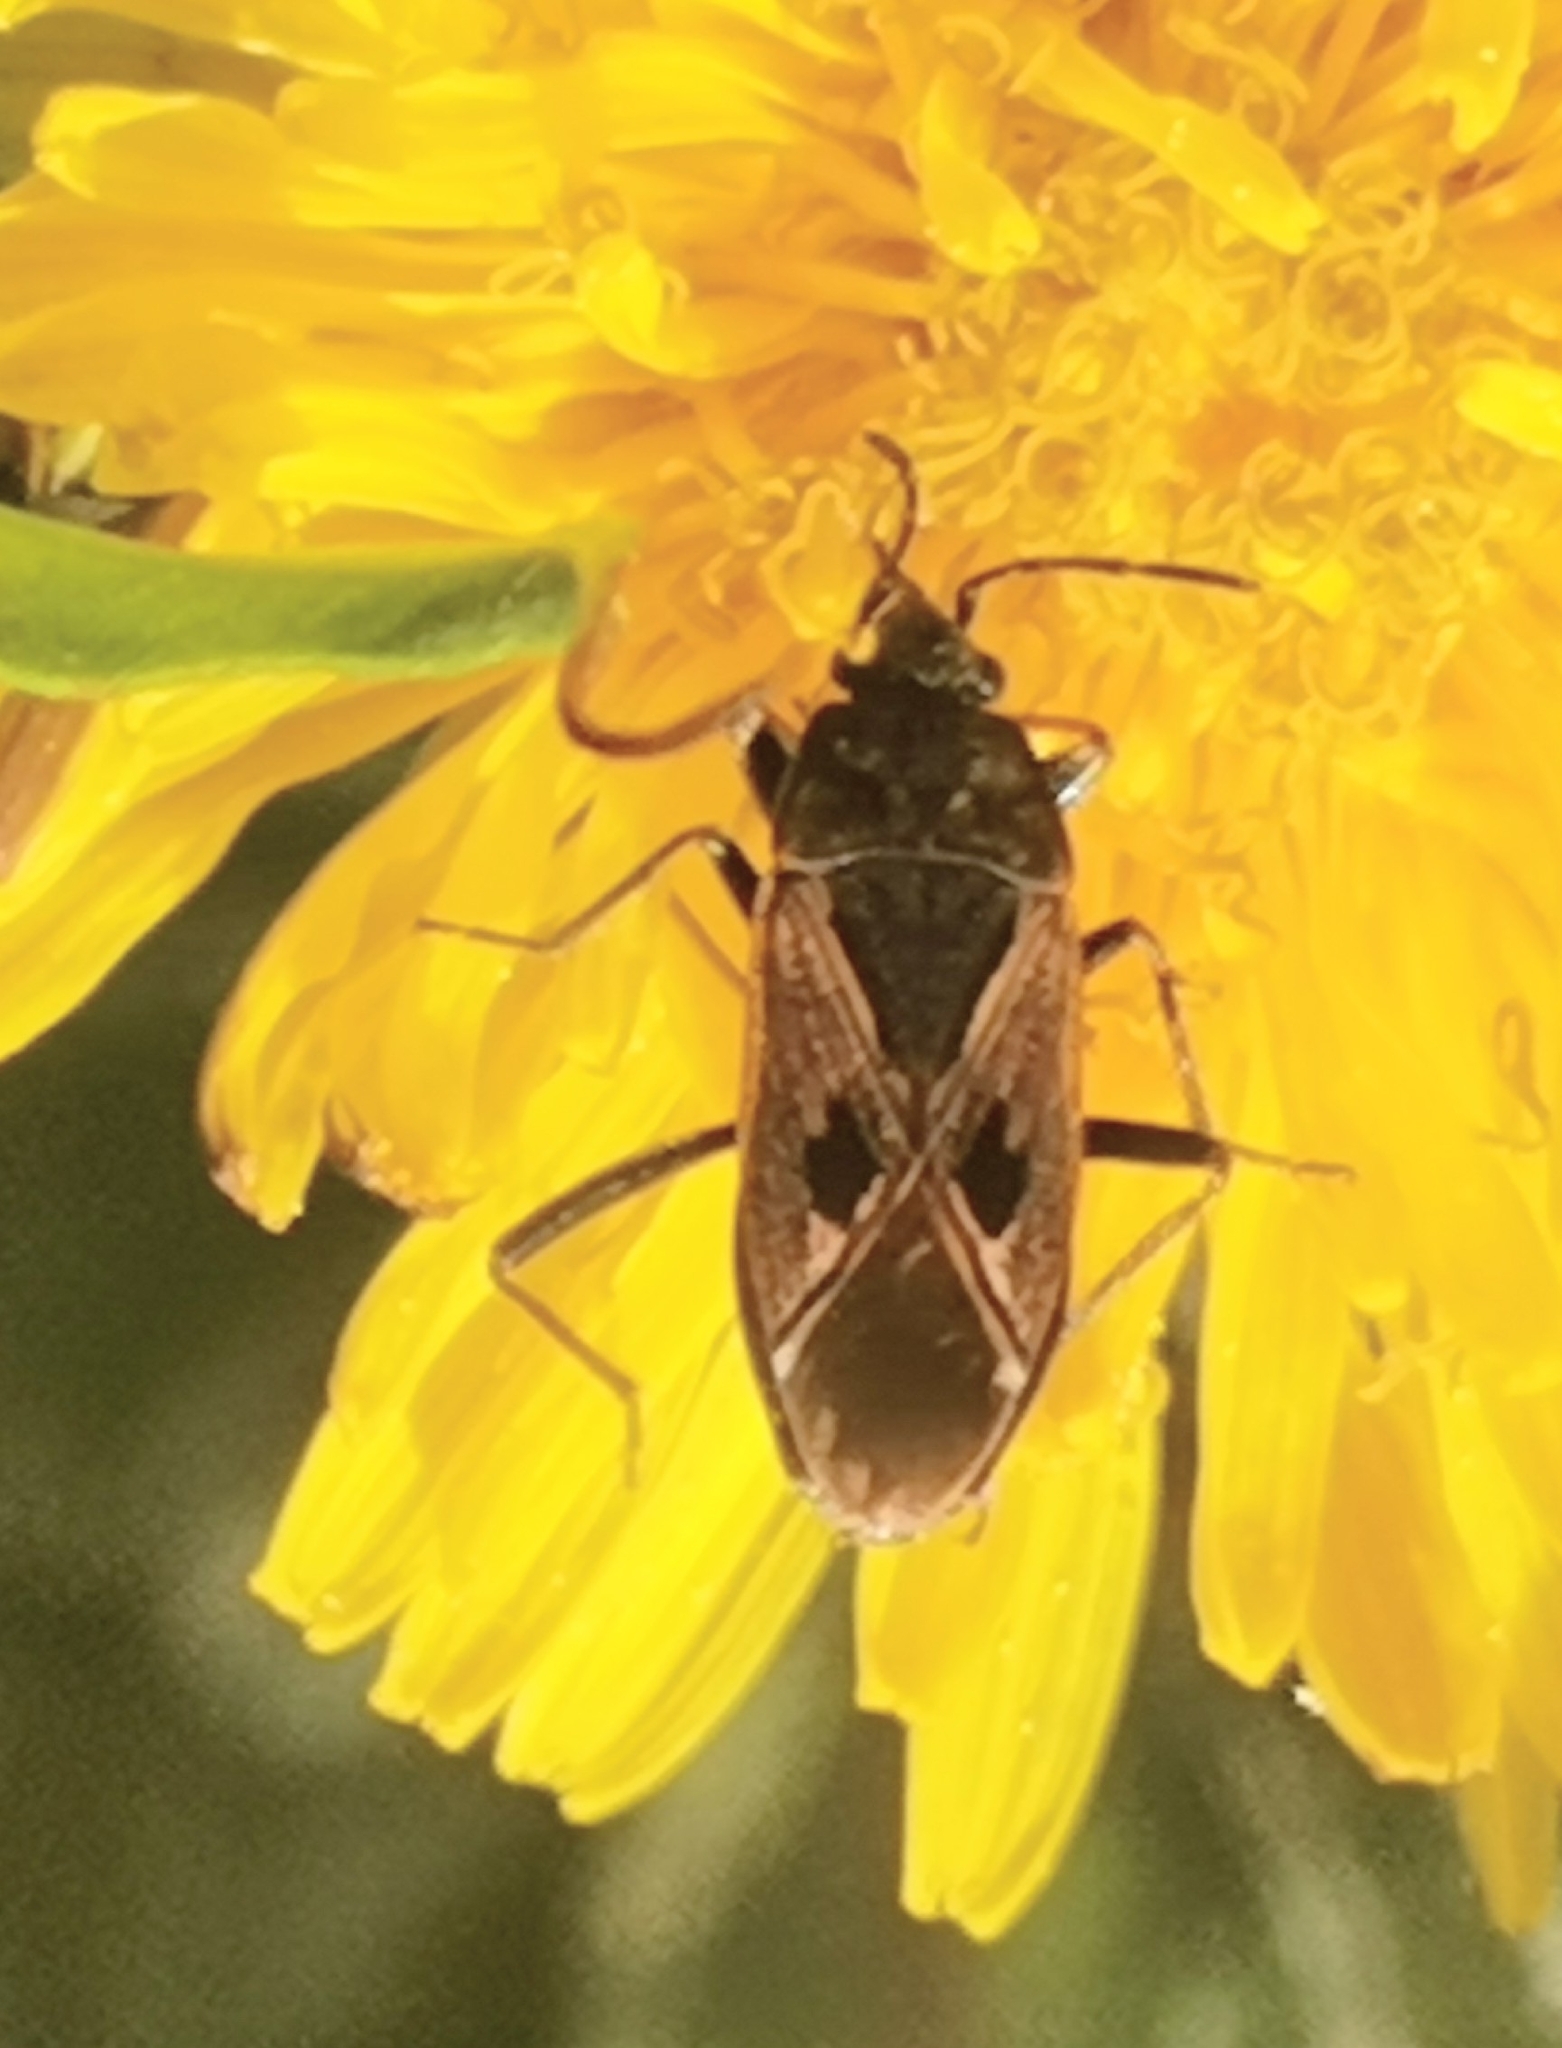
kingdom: Animalia
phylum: Arthropoda
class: Insecta
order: Hemiptera
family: Rhyparochromidae
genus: Rhyparochromus
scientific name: Rhyparochromus pini
